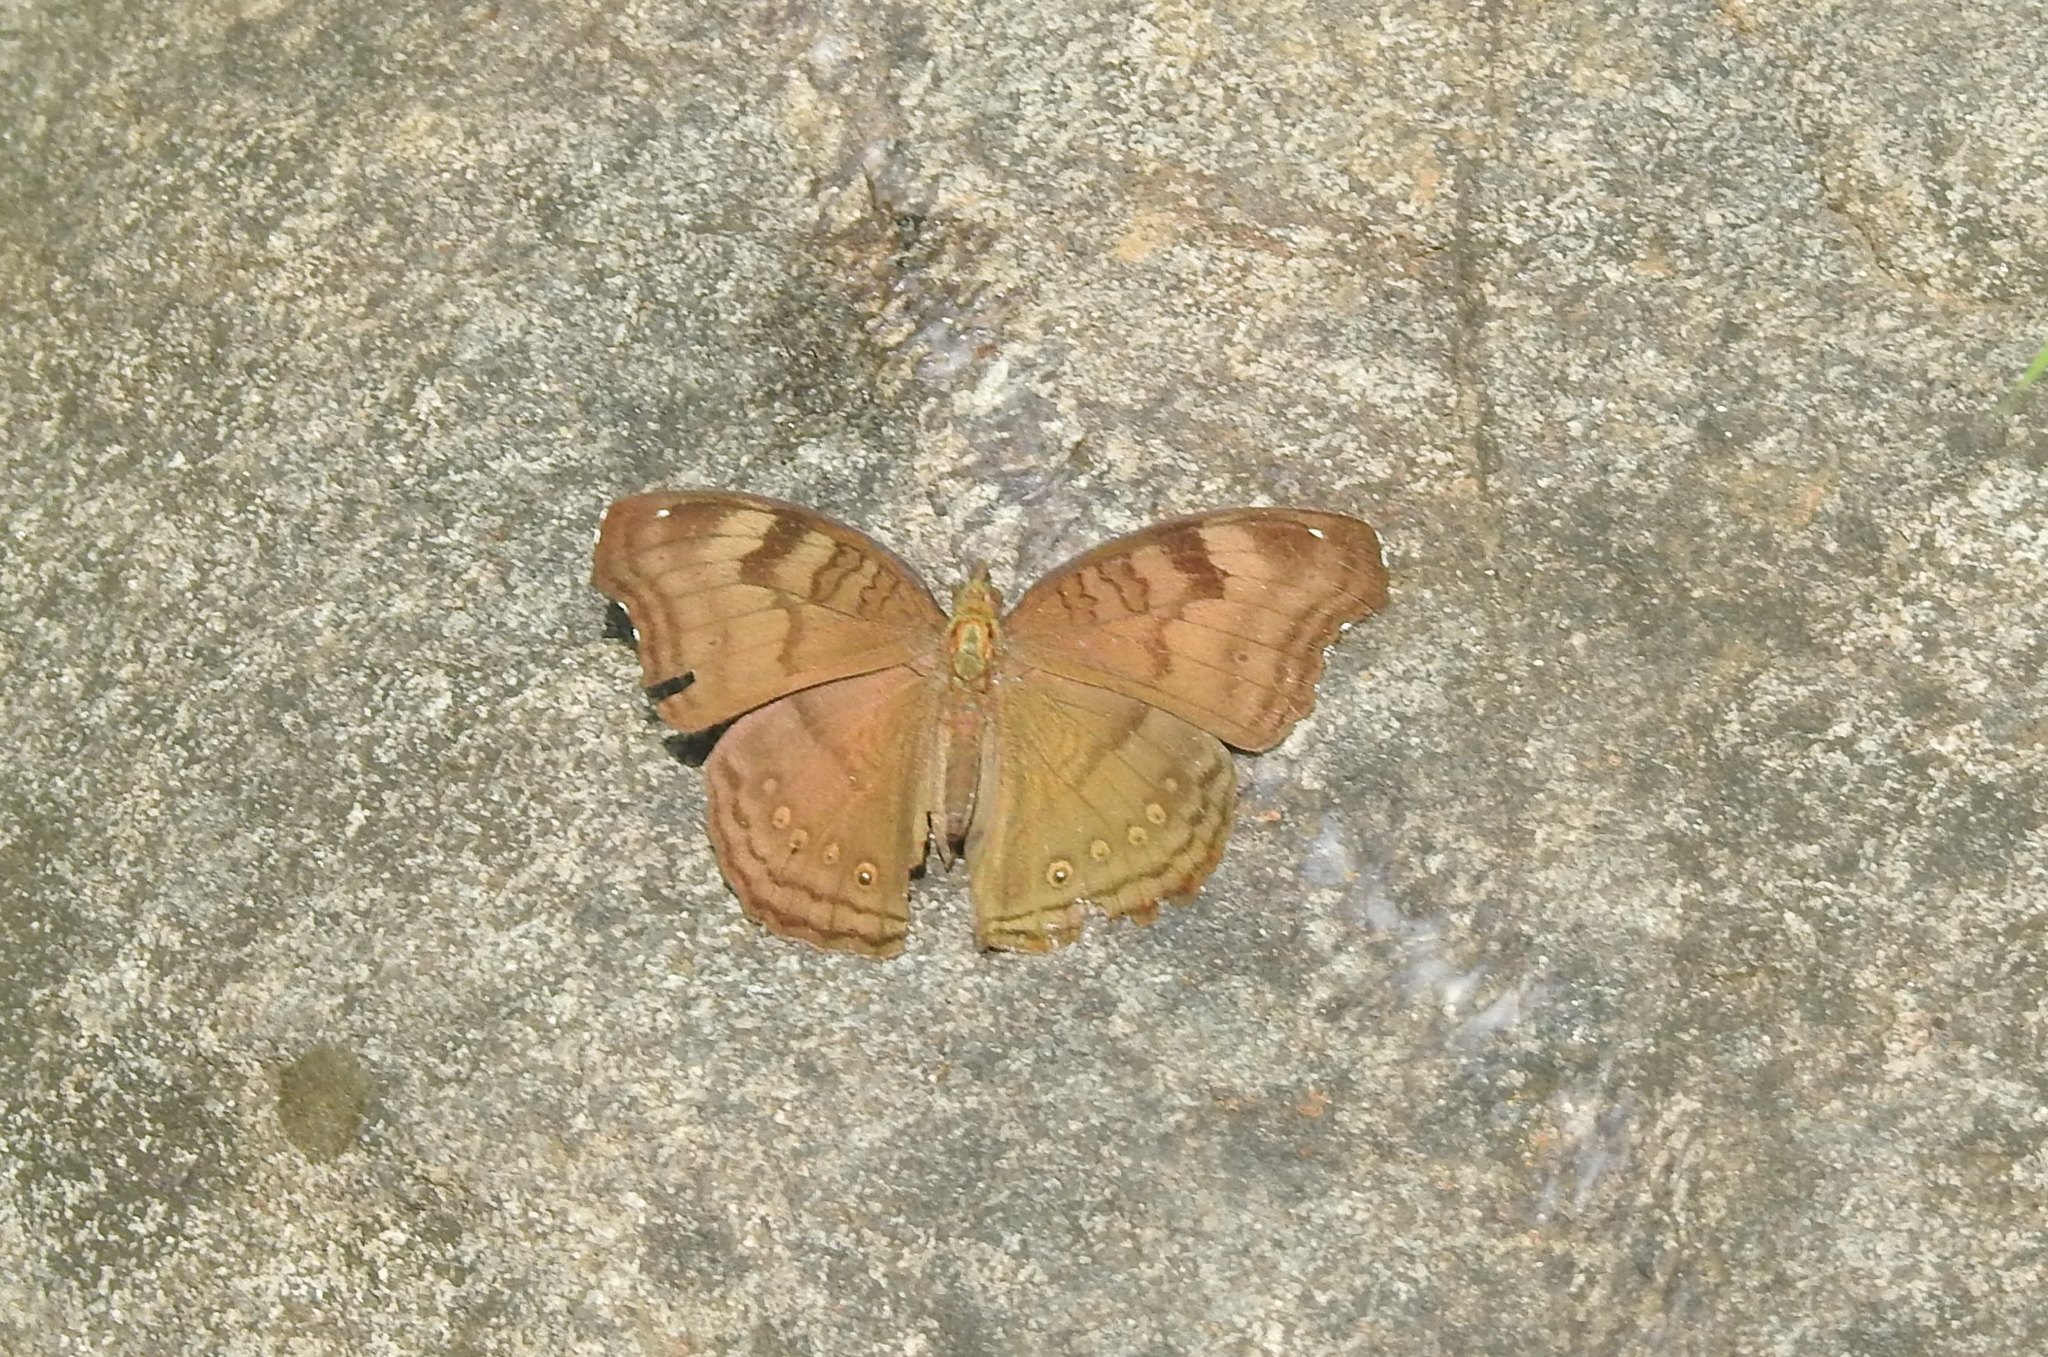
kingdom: Animalia
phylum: Arthropoda
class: Insecta
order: Lepidoptera
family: Nymphalidae
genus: Junonia
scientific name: Junonia iphita
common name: Chocolate pansy
